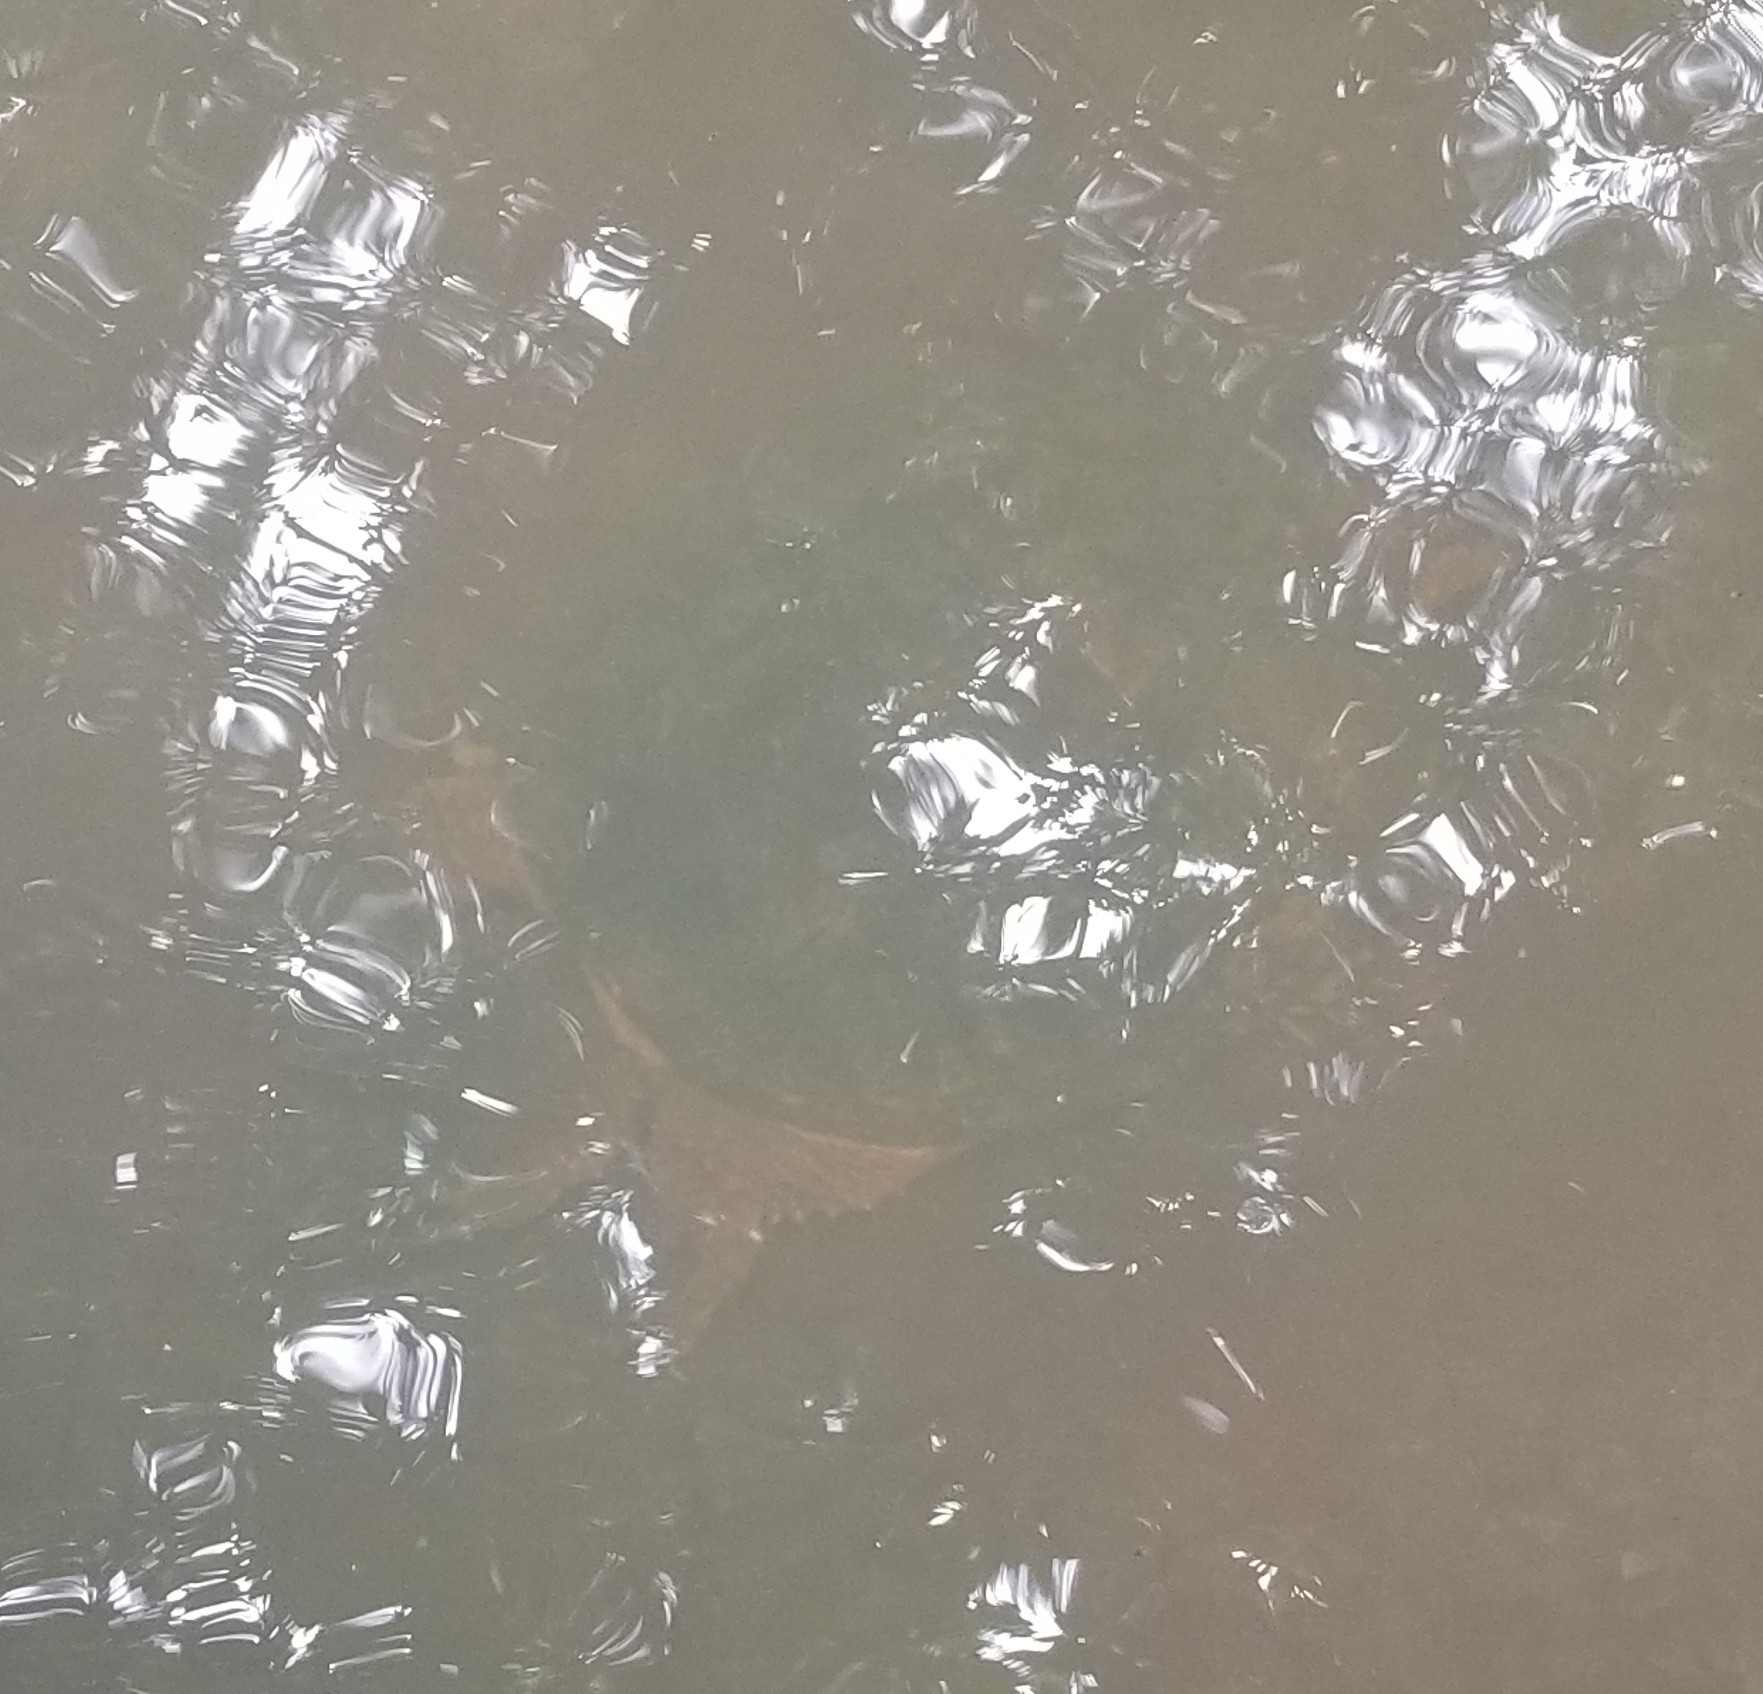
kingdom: Animalia
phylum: Chordata
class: Testudines
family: Chelydridae
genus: Chelydra
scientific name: Chelydra serpentina
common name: Common snapping turtle
